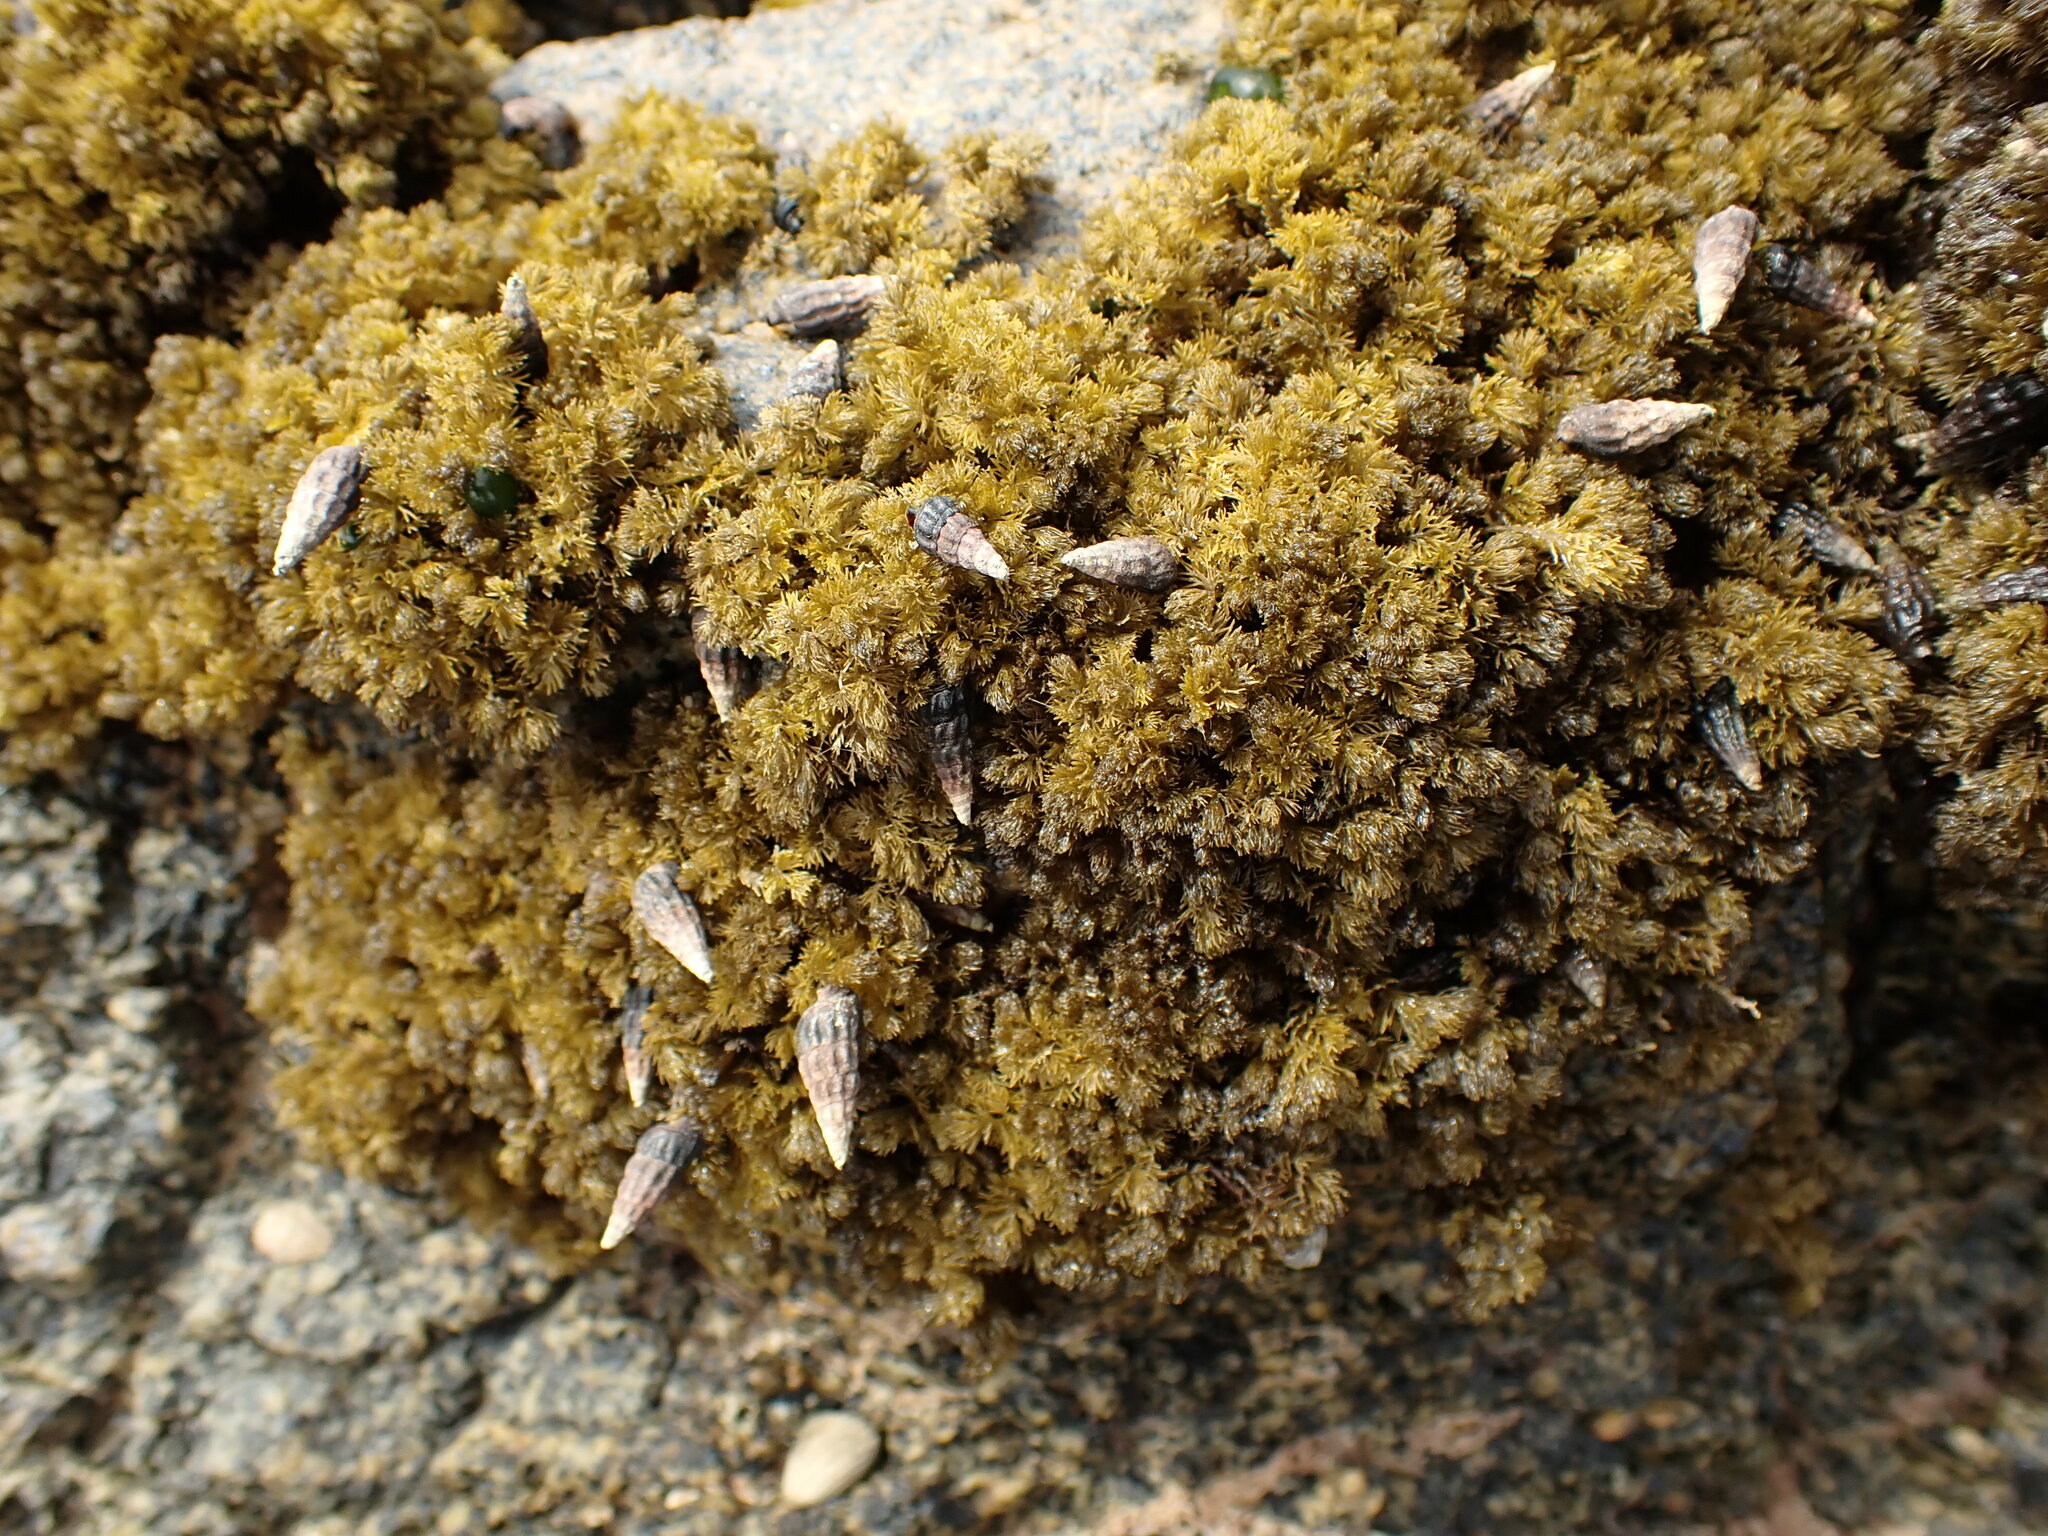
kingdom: Plantae
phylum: Rhodophyta
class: Florideophyceae
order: Ceramiales
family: Rhodomelaceae
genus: Bostrychia
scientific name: Bostrychia arbuscula
